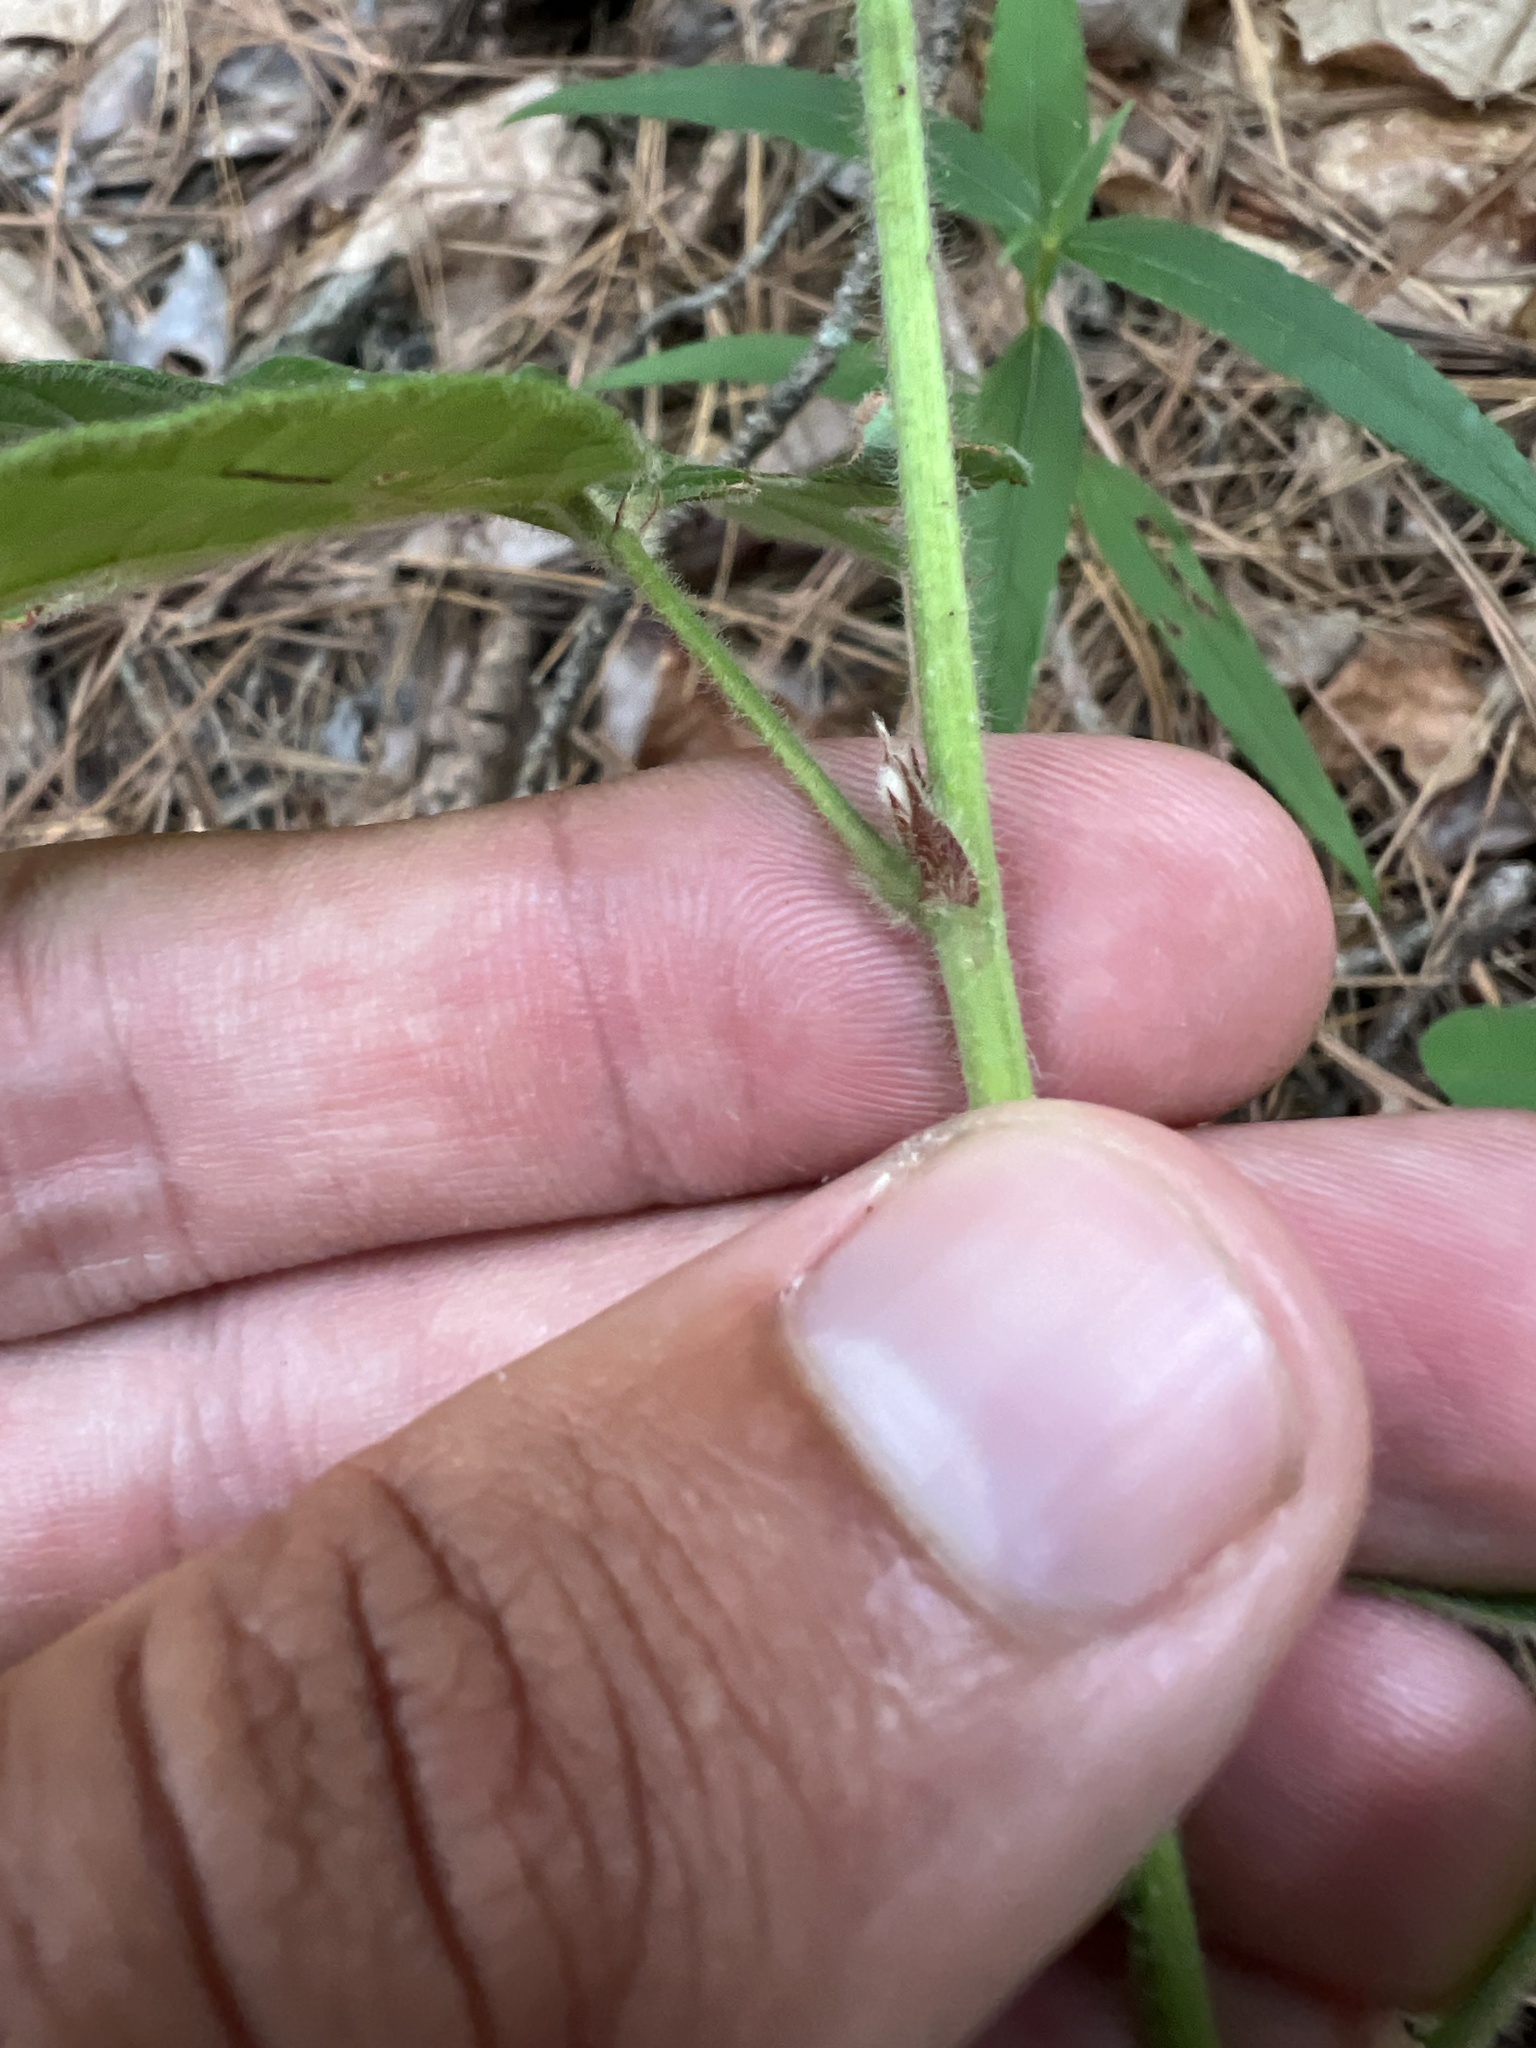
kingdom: Plantae
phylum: Tracheophyta
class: Magnoliopsida
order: Fabales
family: Fabaceae
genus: Desmodium
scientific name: Desmodium nuttallii
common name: Nuttall's tick trefoil
